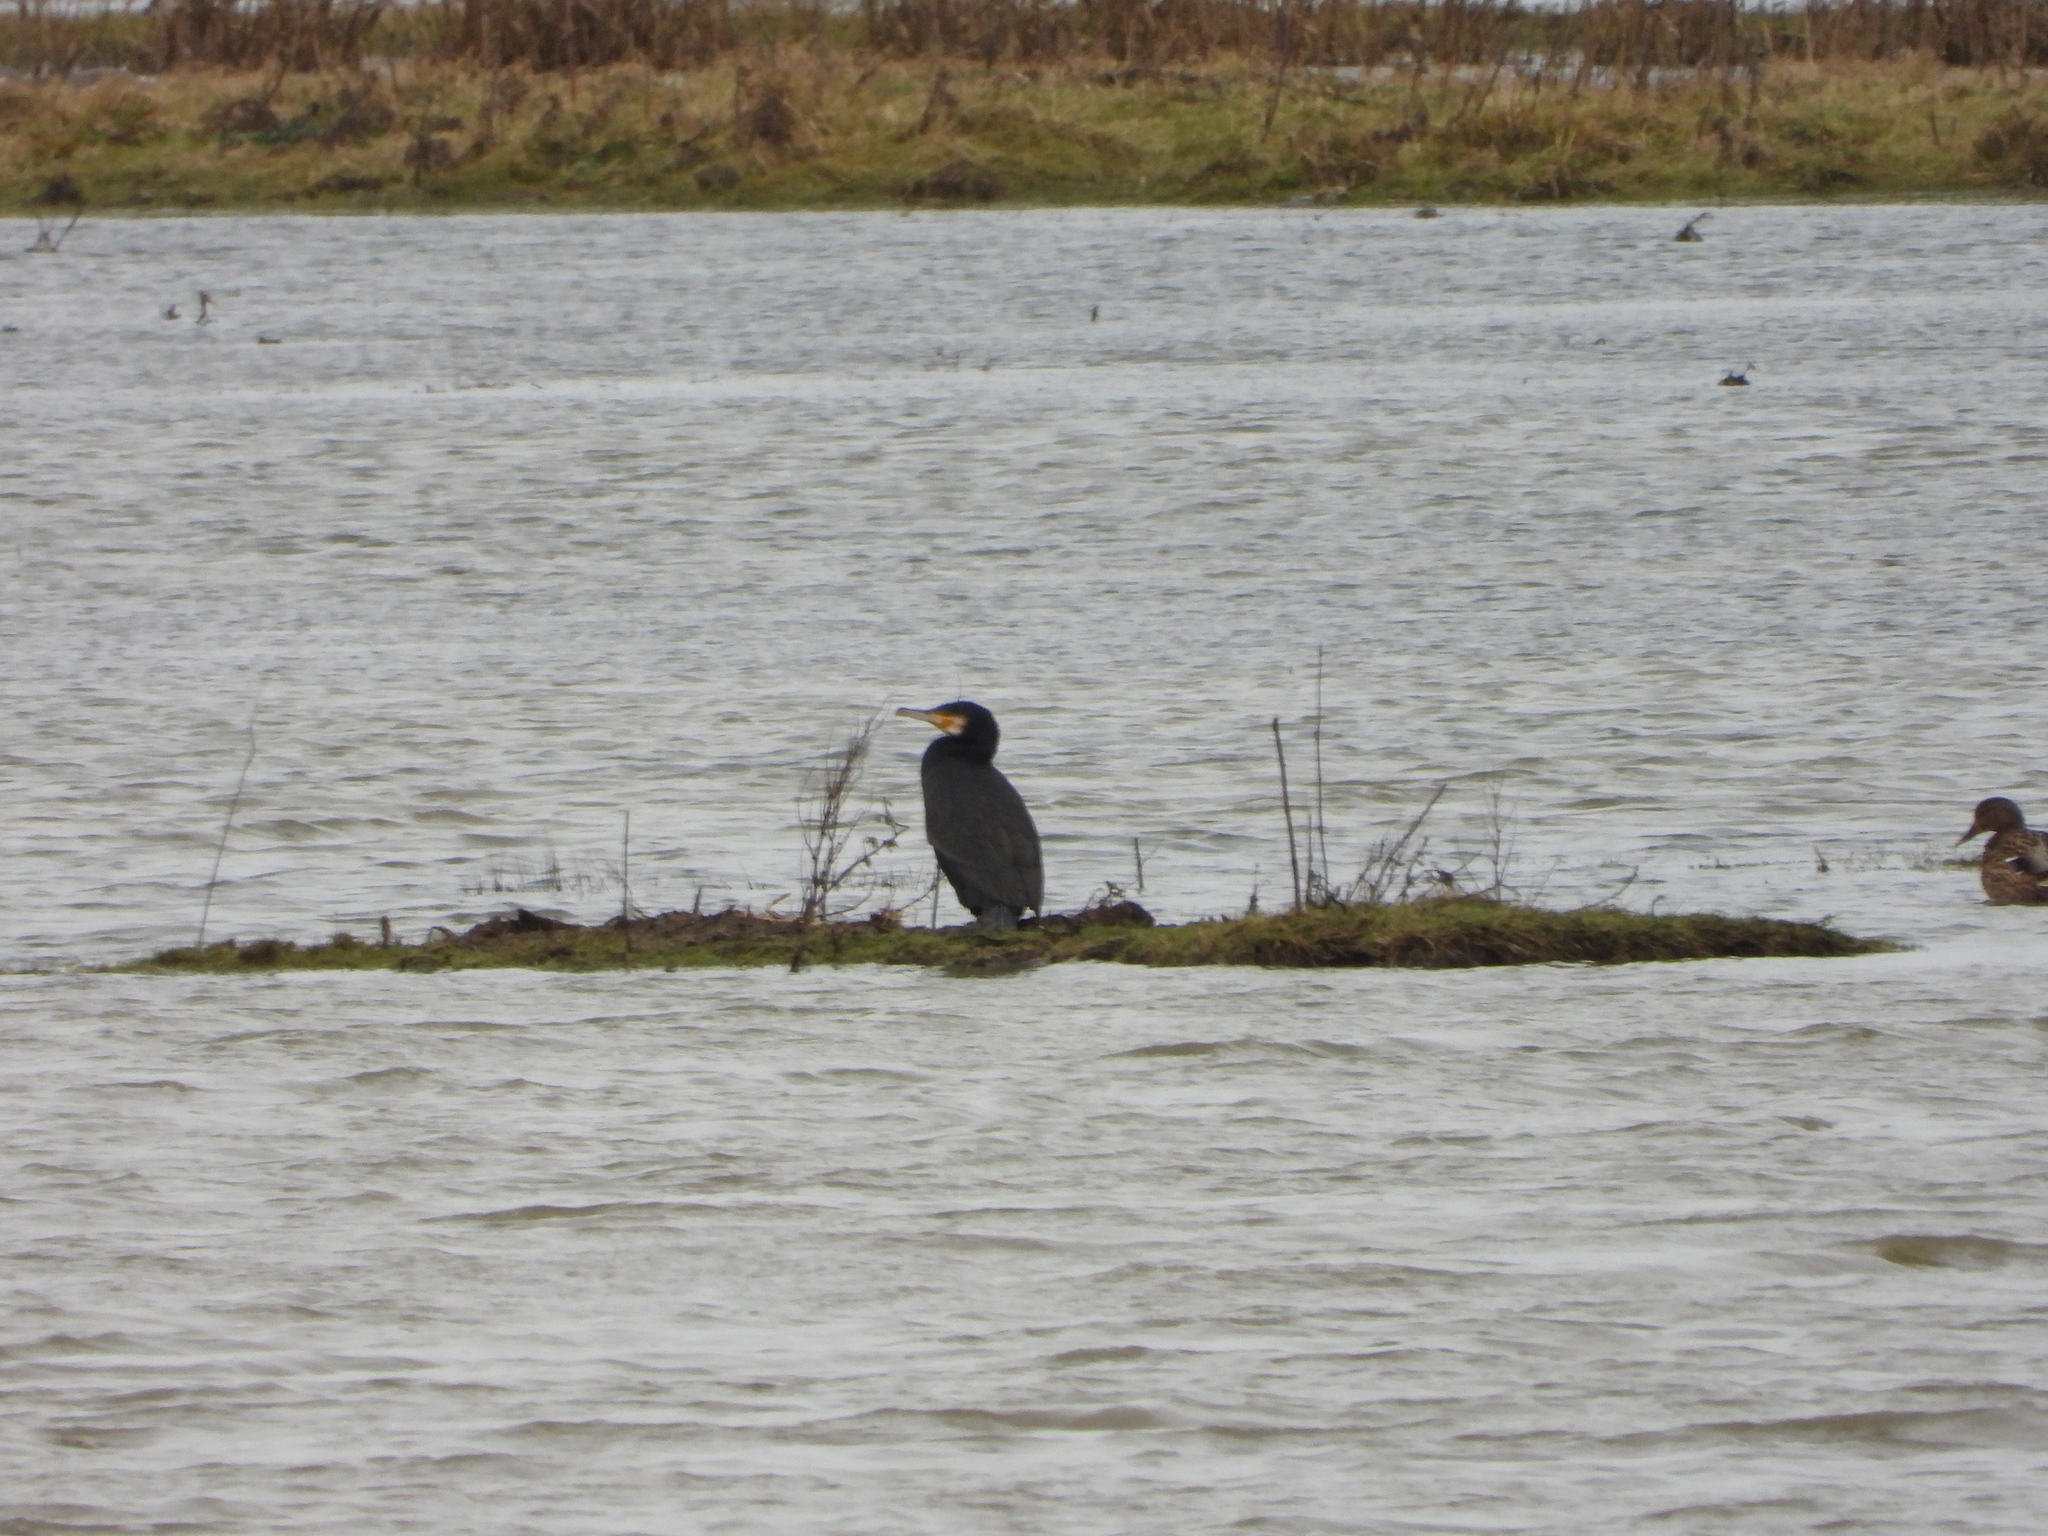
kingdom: Animalia
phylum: Chordata
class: Aves
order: Suliformes
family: Phalacrocoracidae
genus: Phalacrocorax
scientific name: Phalacrocorax carbo
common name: Great cormorant
